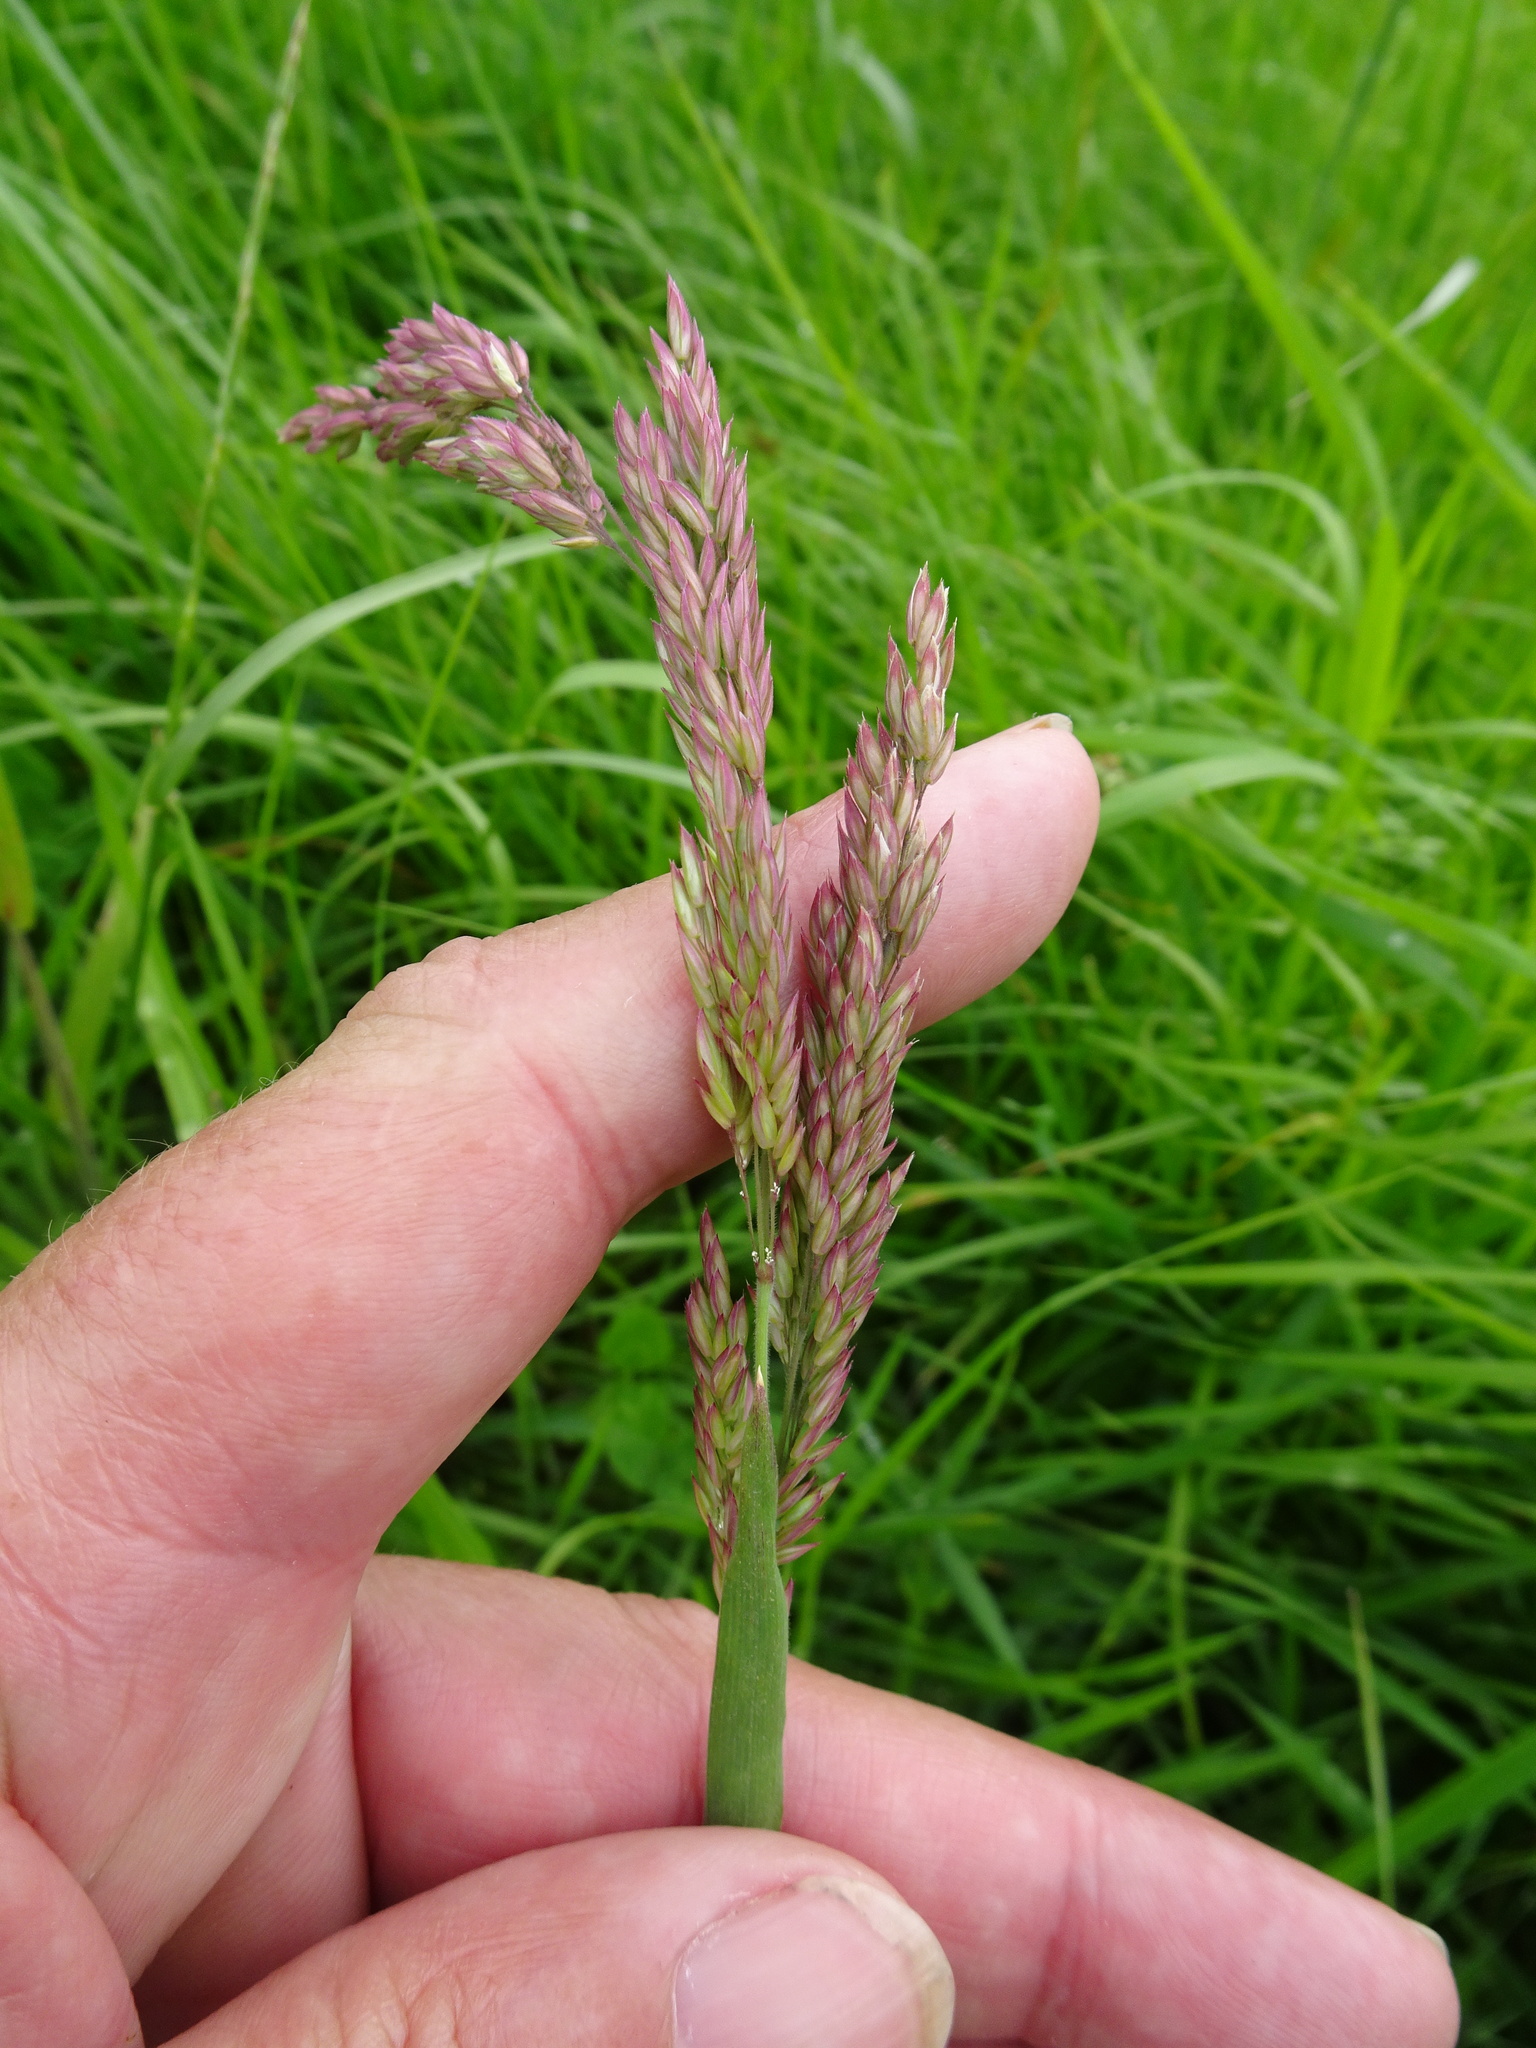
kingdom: Plantae
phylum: Tracheophyta
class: Liliopsida
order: Poales
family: Poaceae
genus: Holcus
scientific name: Holcus lanatus
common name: Yorkshire-fog
